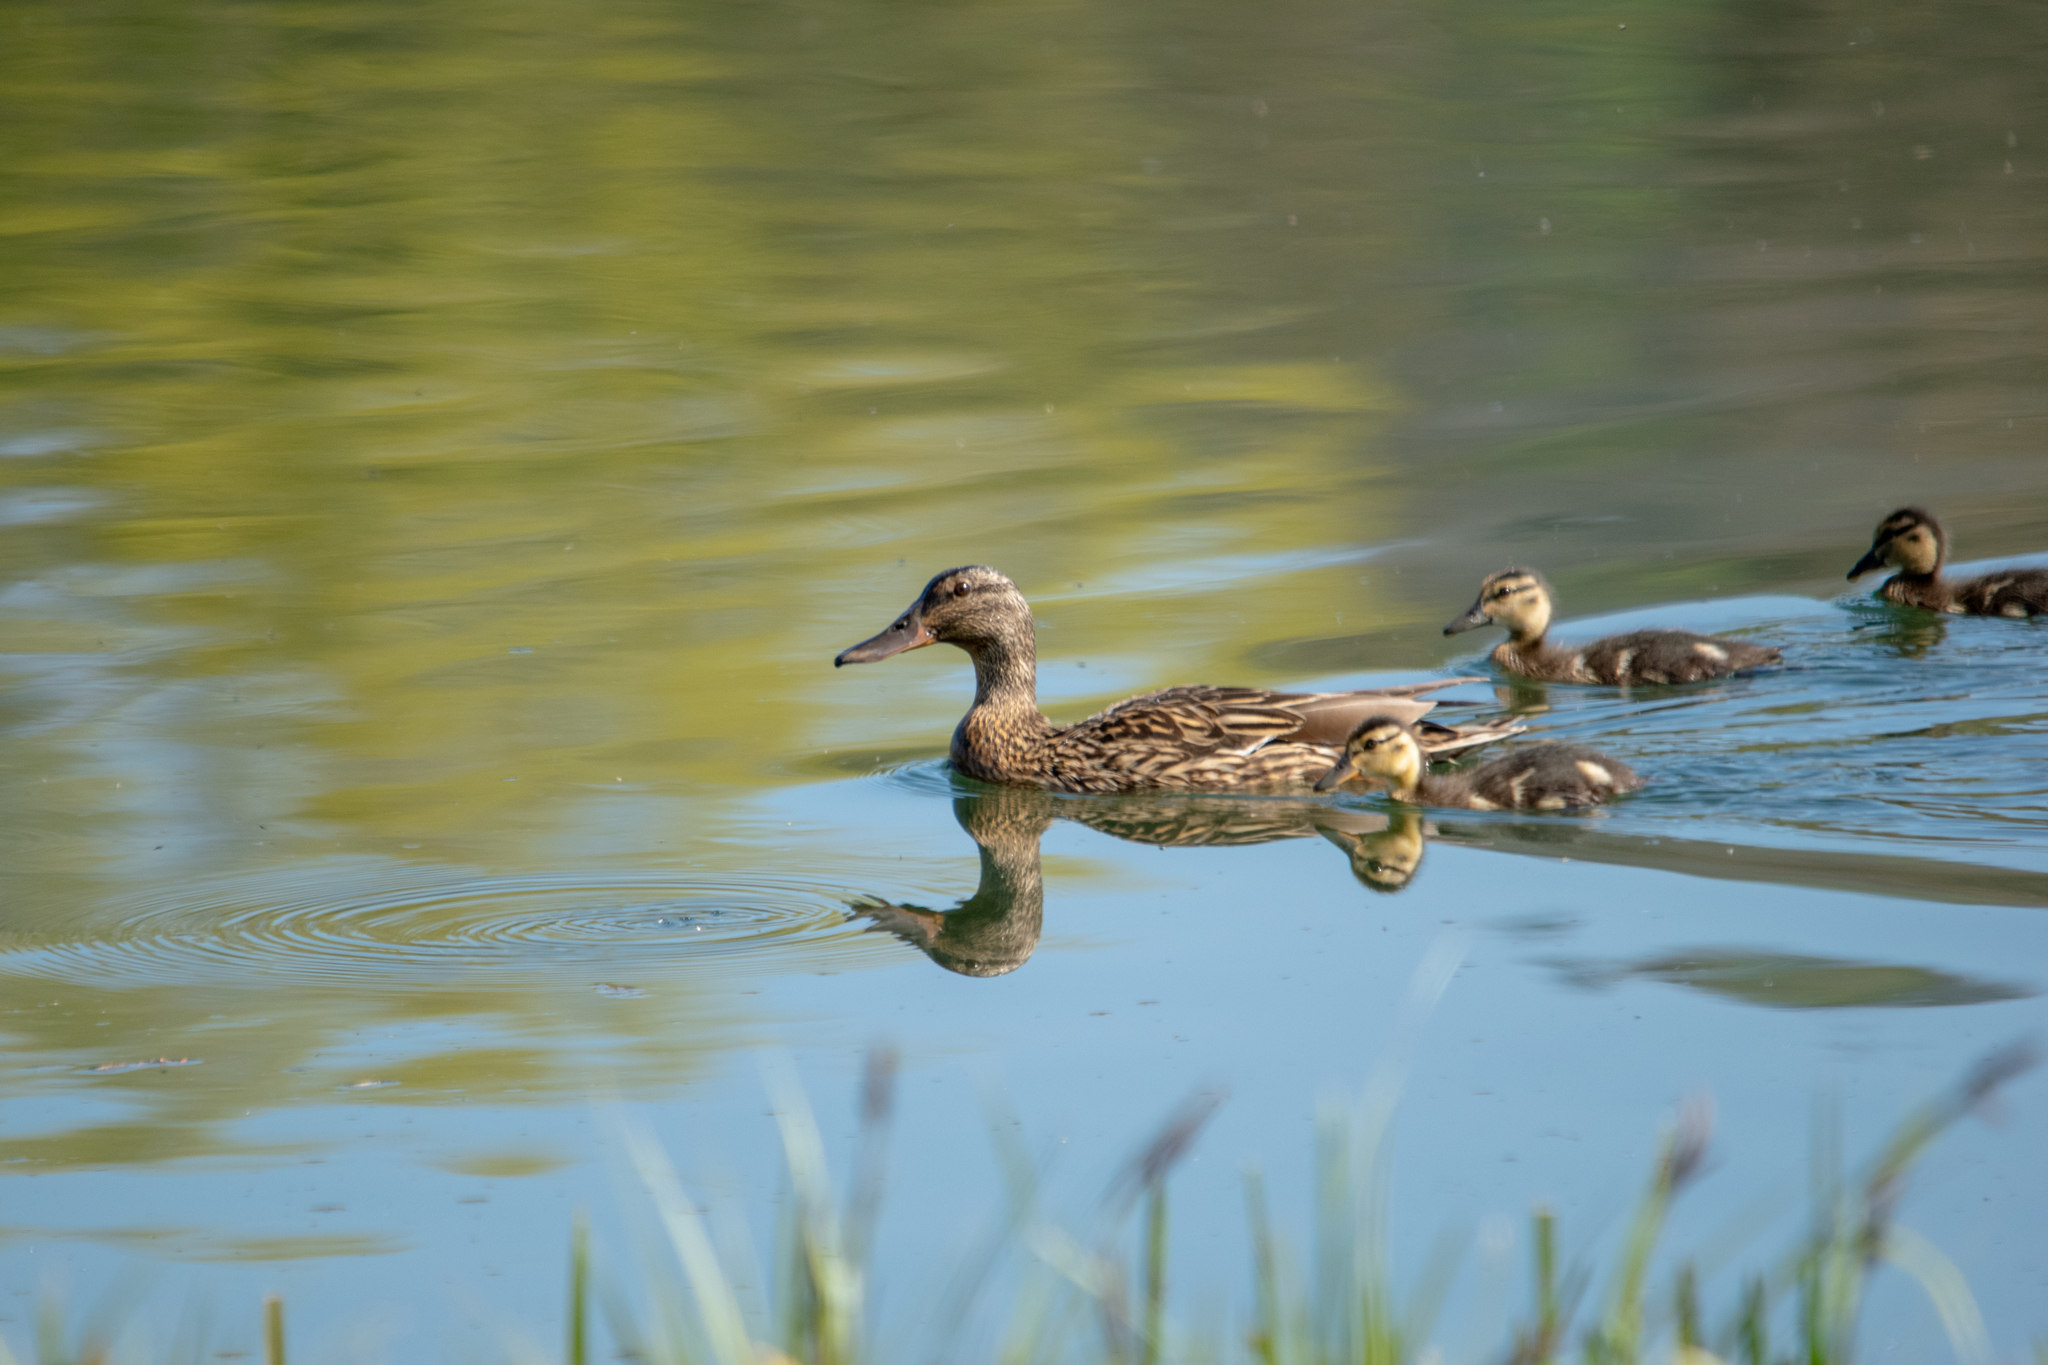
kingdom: Animalia
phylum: Chordata
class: Aves
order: Anseriformes
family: Anatidae
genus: Anas
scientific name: Anas platyrhynchos
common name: Mallard
